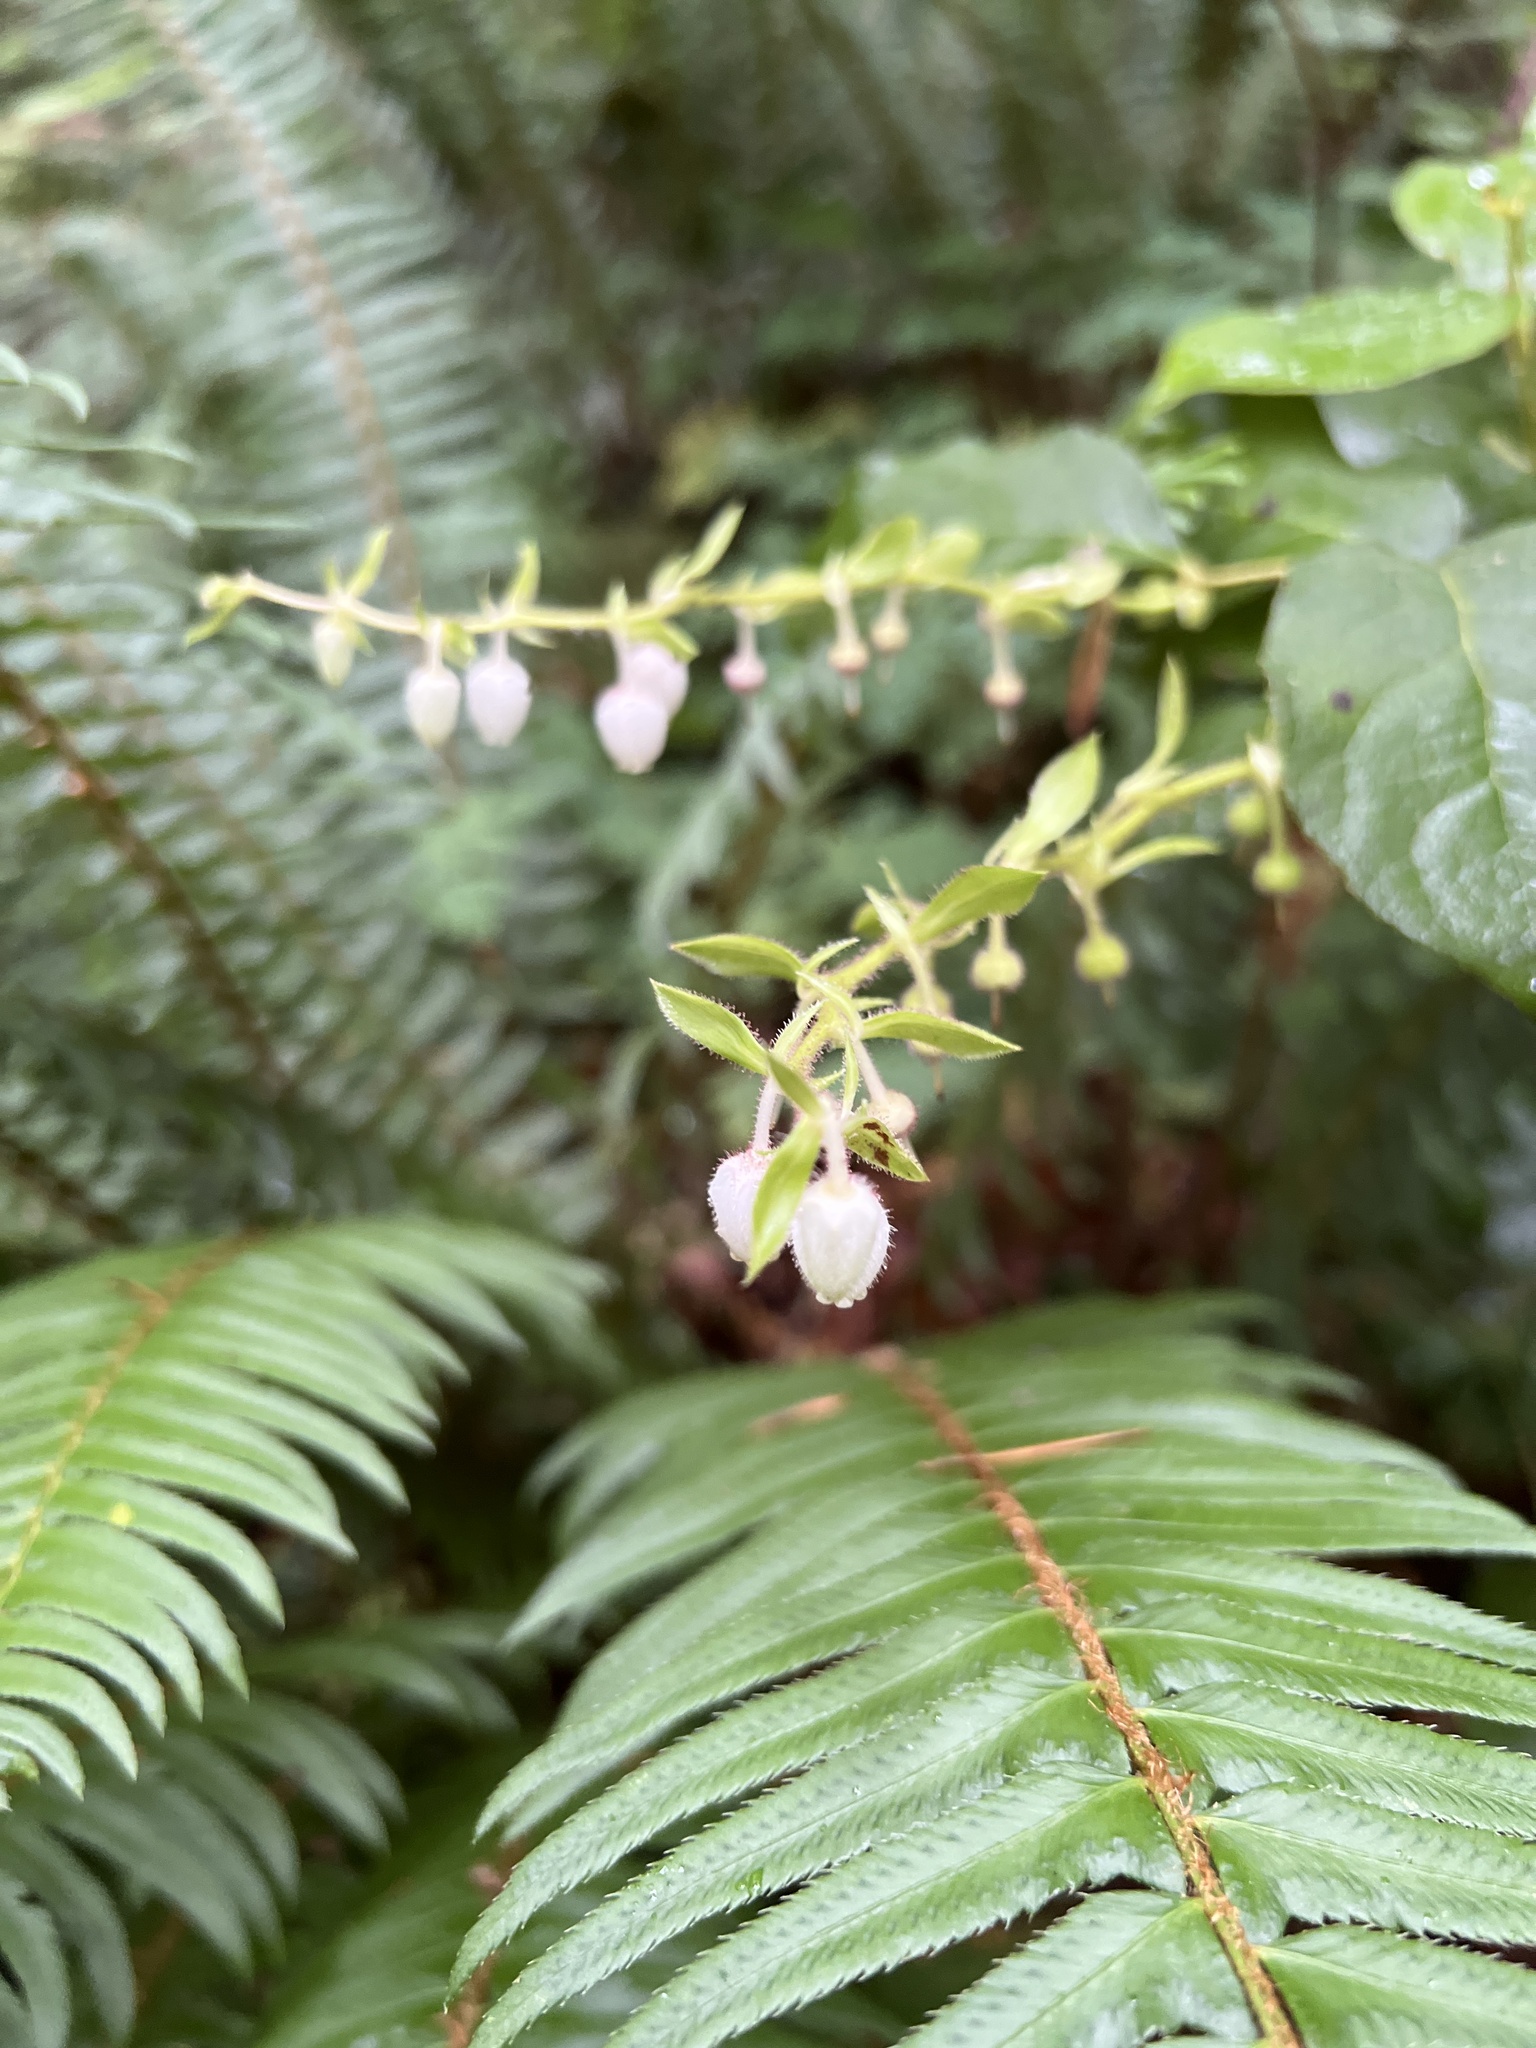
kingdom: Plantae
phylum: Tracheophyta
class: Magnoliopsida
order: Ericales
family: Ericaceae
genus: Gaultheria
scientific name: Gaultheria shallon
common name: Shallon
